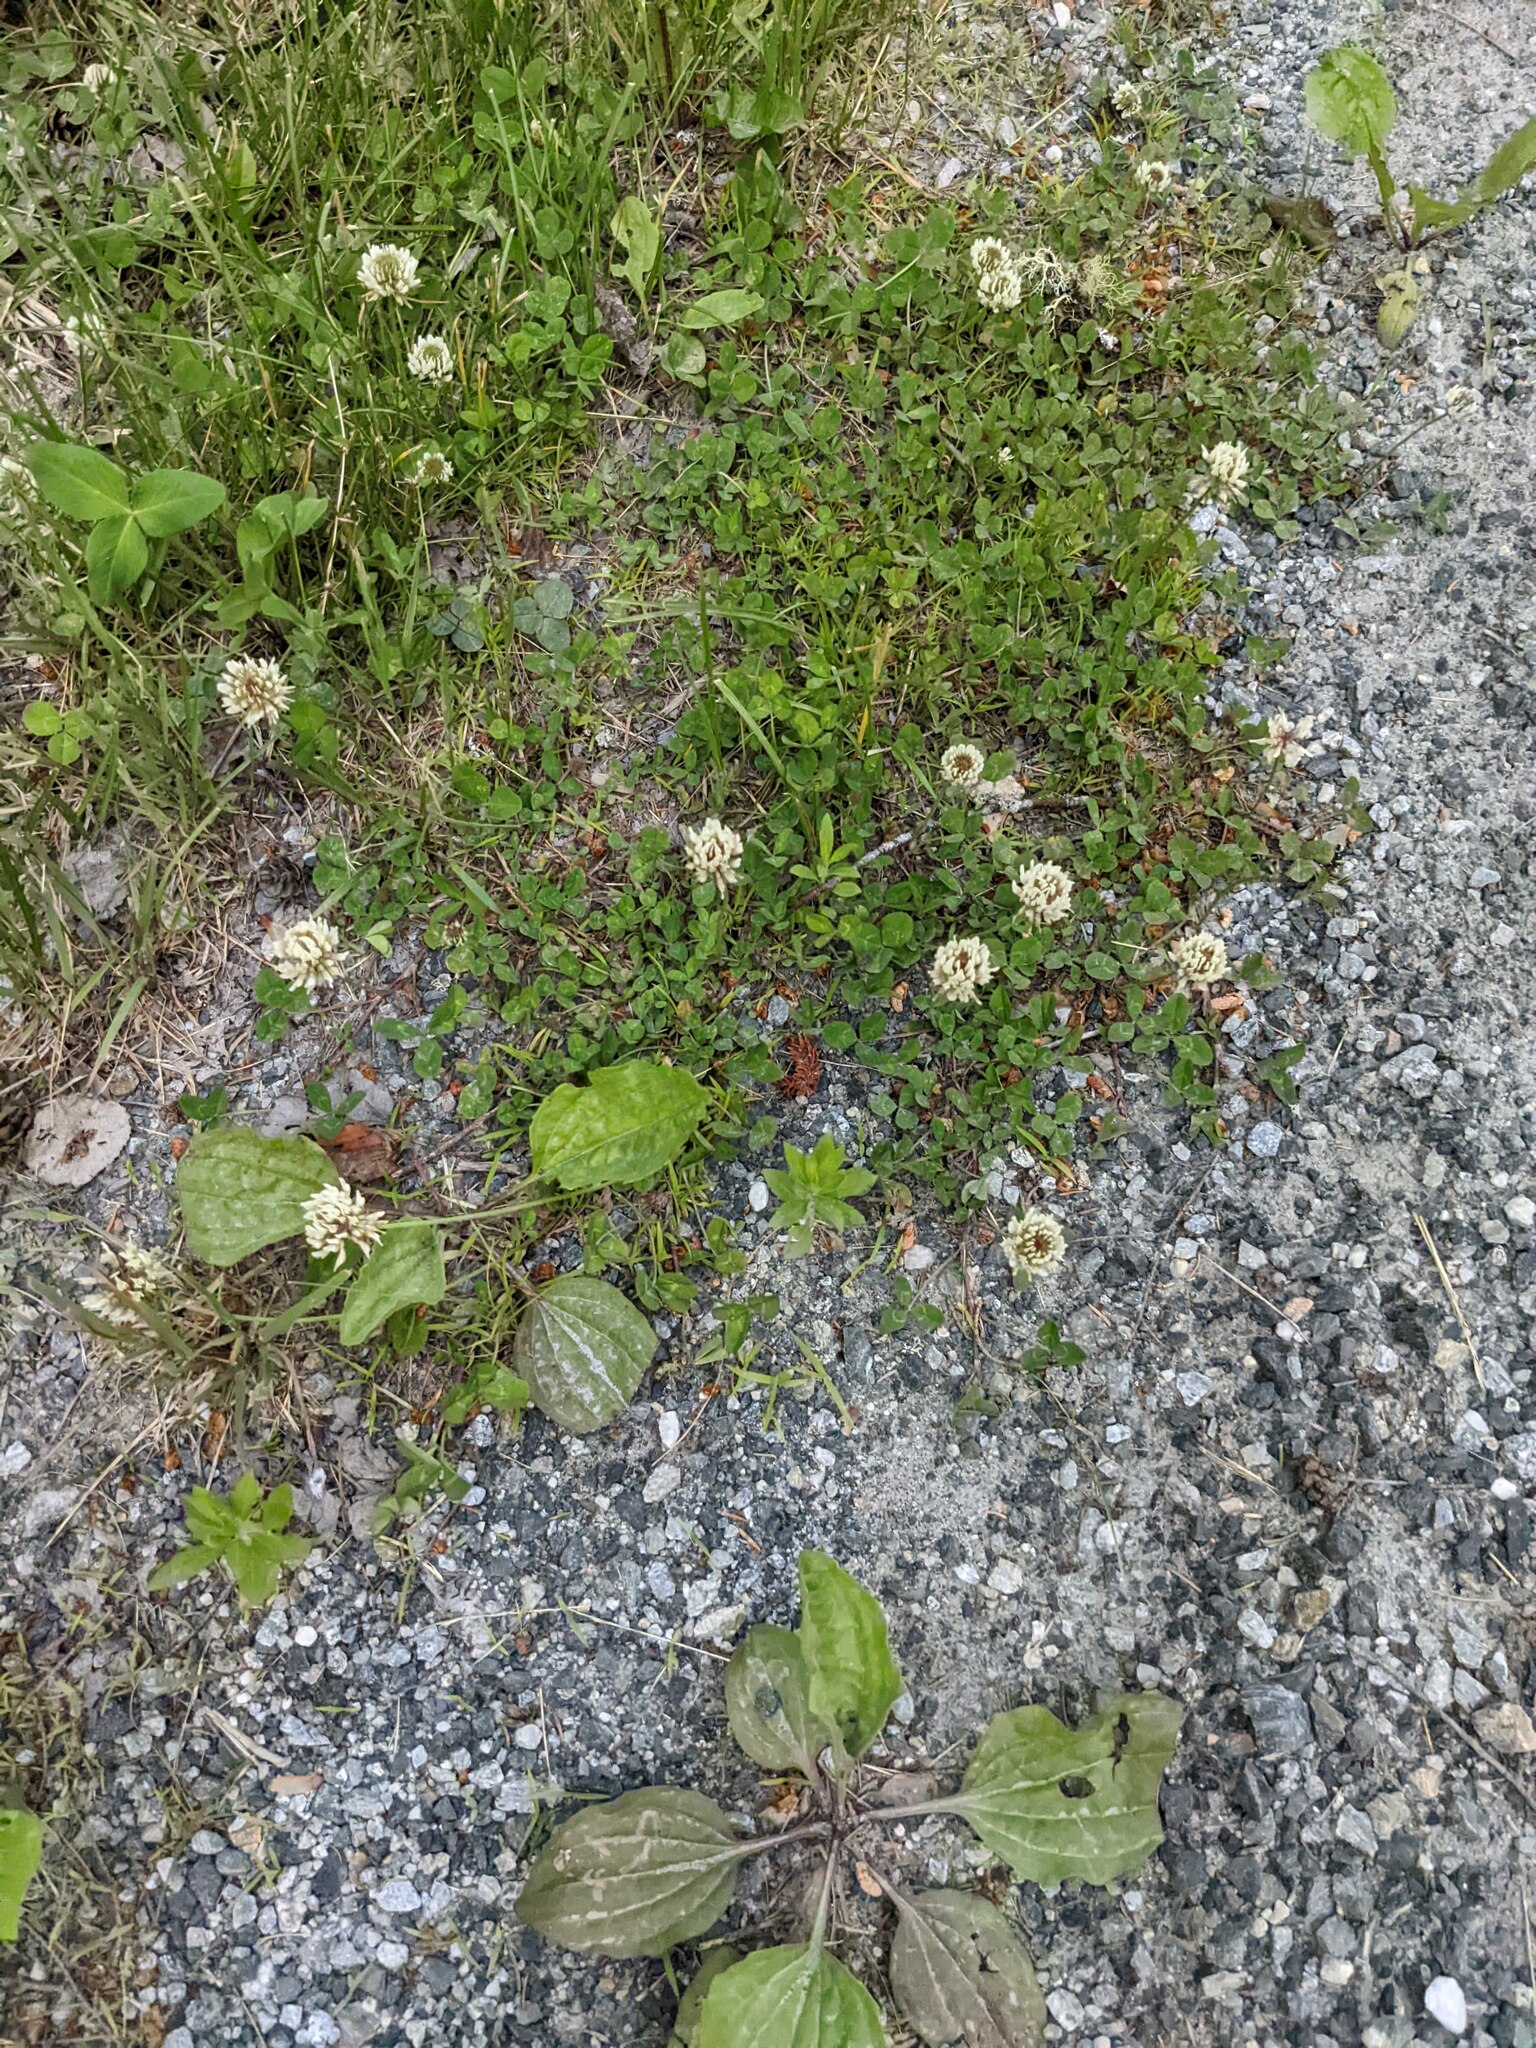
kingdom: Plantae
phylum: Tracheophyta
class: Magnoliopsida
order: Fabales
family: Fabaceae
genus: Trifolium
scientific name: Trifolium repens
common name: White clover
